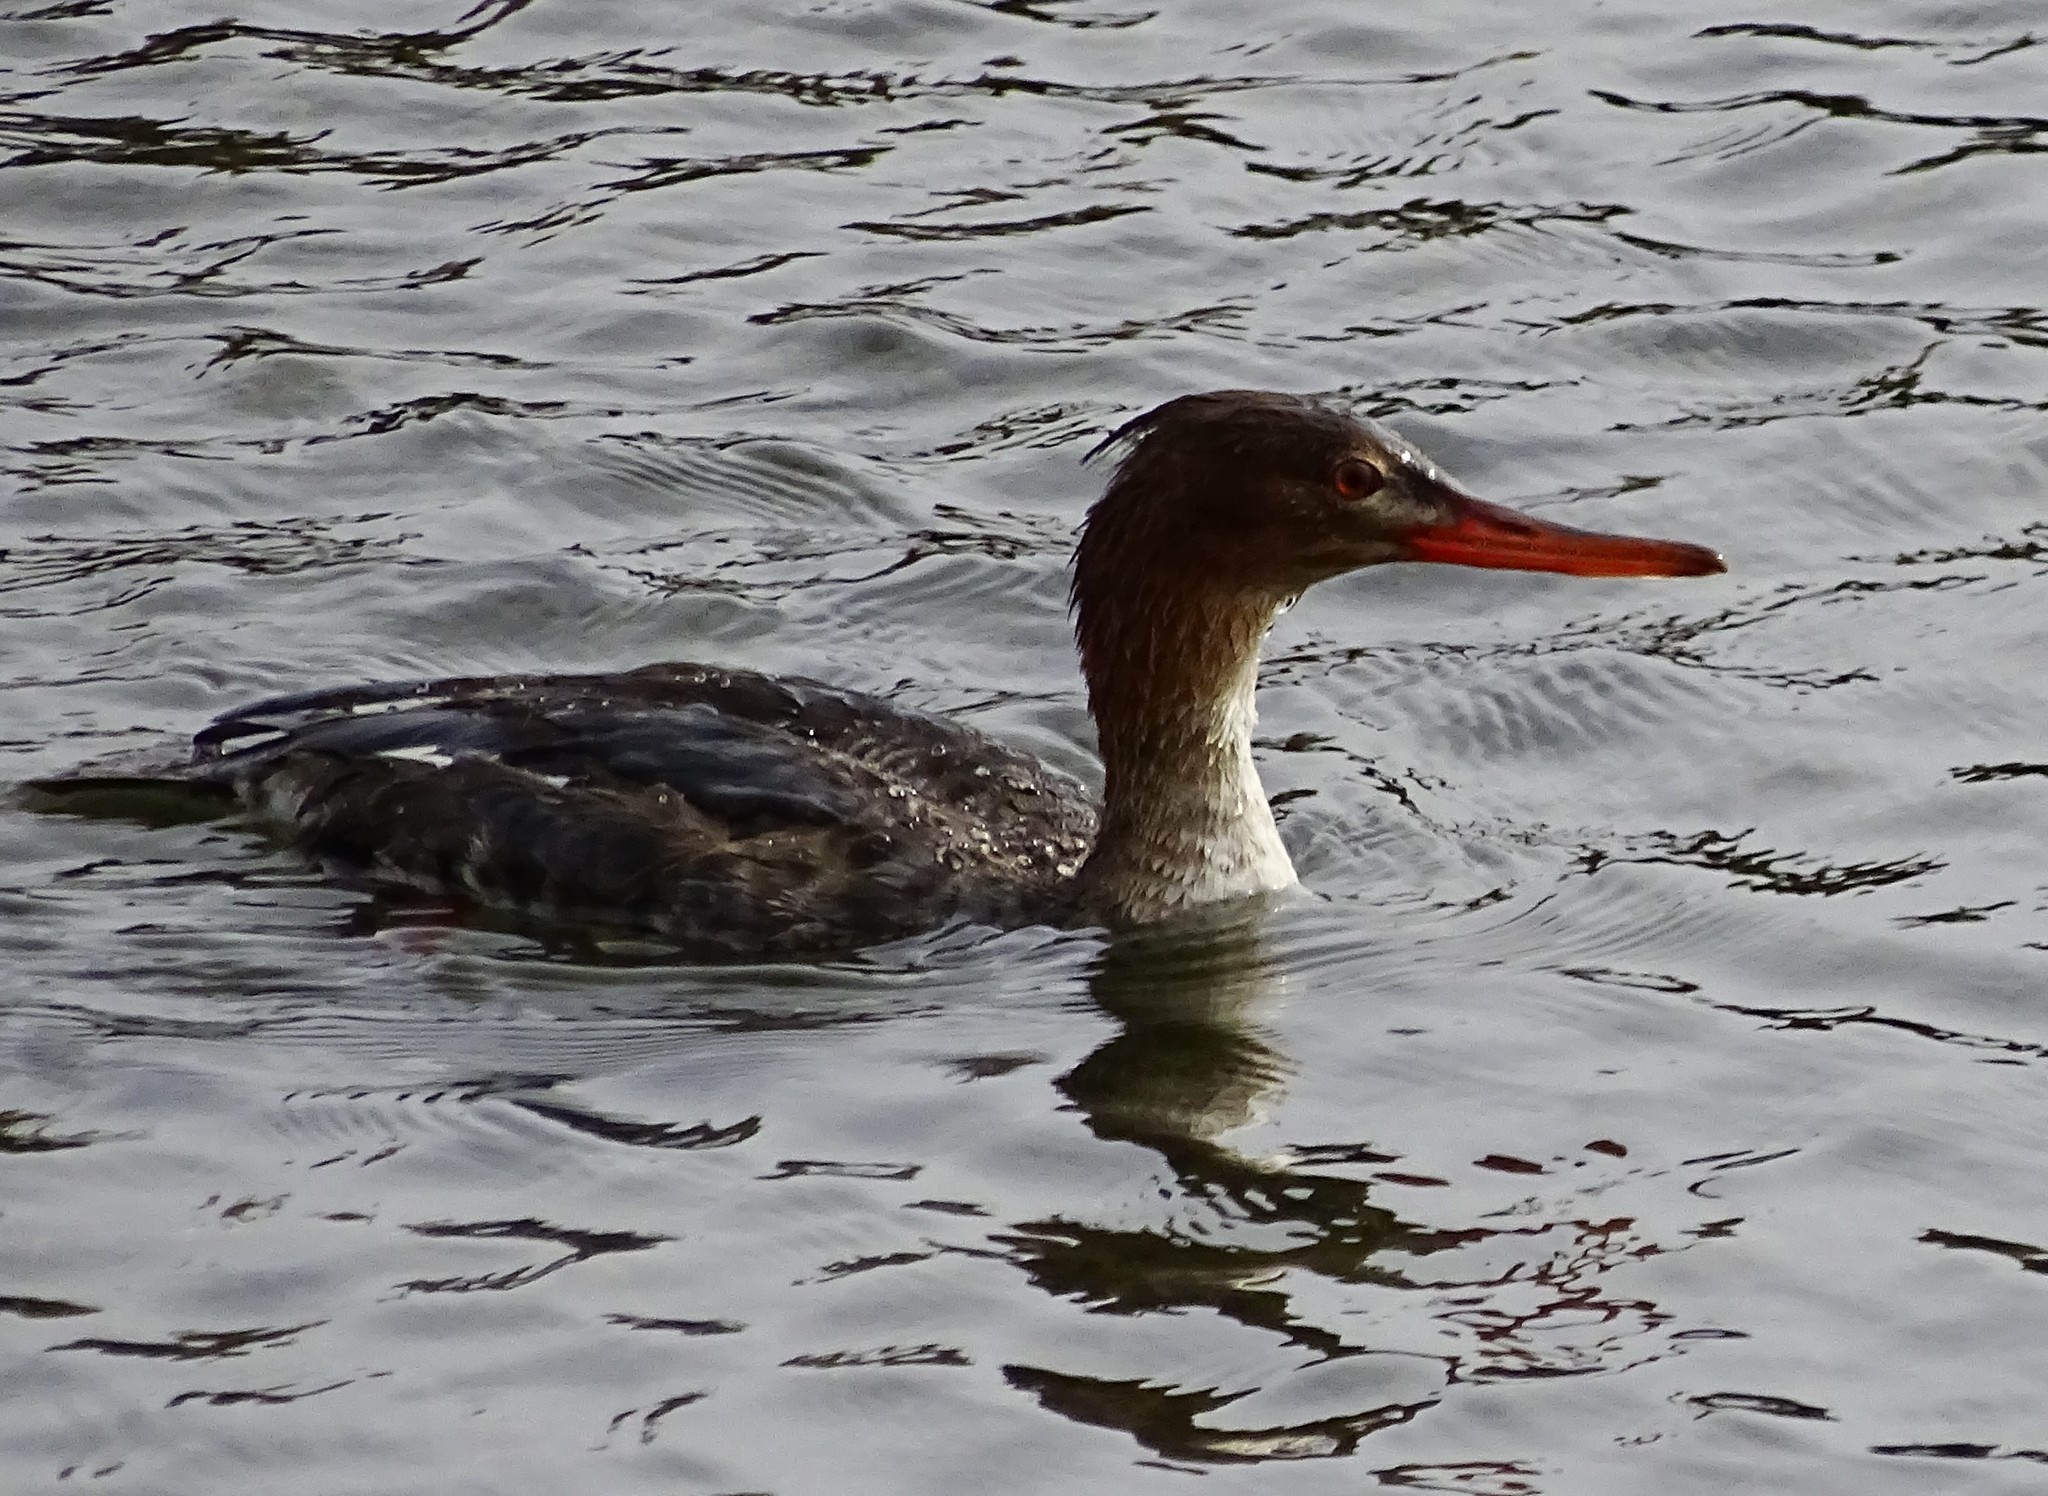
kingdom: Animalia
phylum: Chordata
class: Aves
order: Anseriformes
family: Anatidae
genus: Mergus
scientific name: Mergus serrator
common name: Red-breasted merganser
